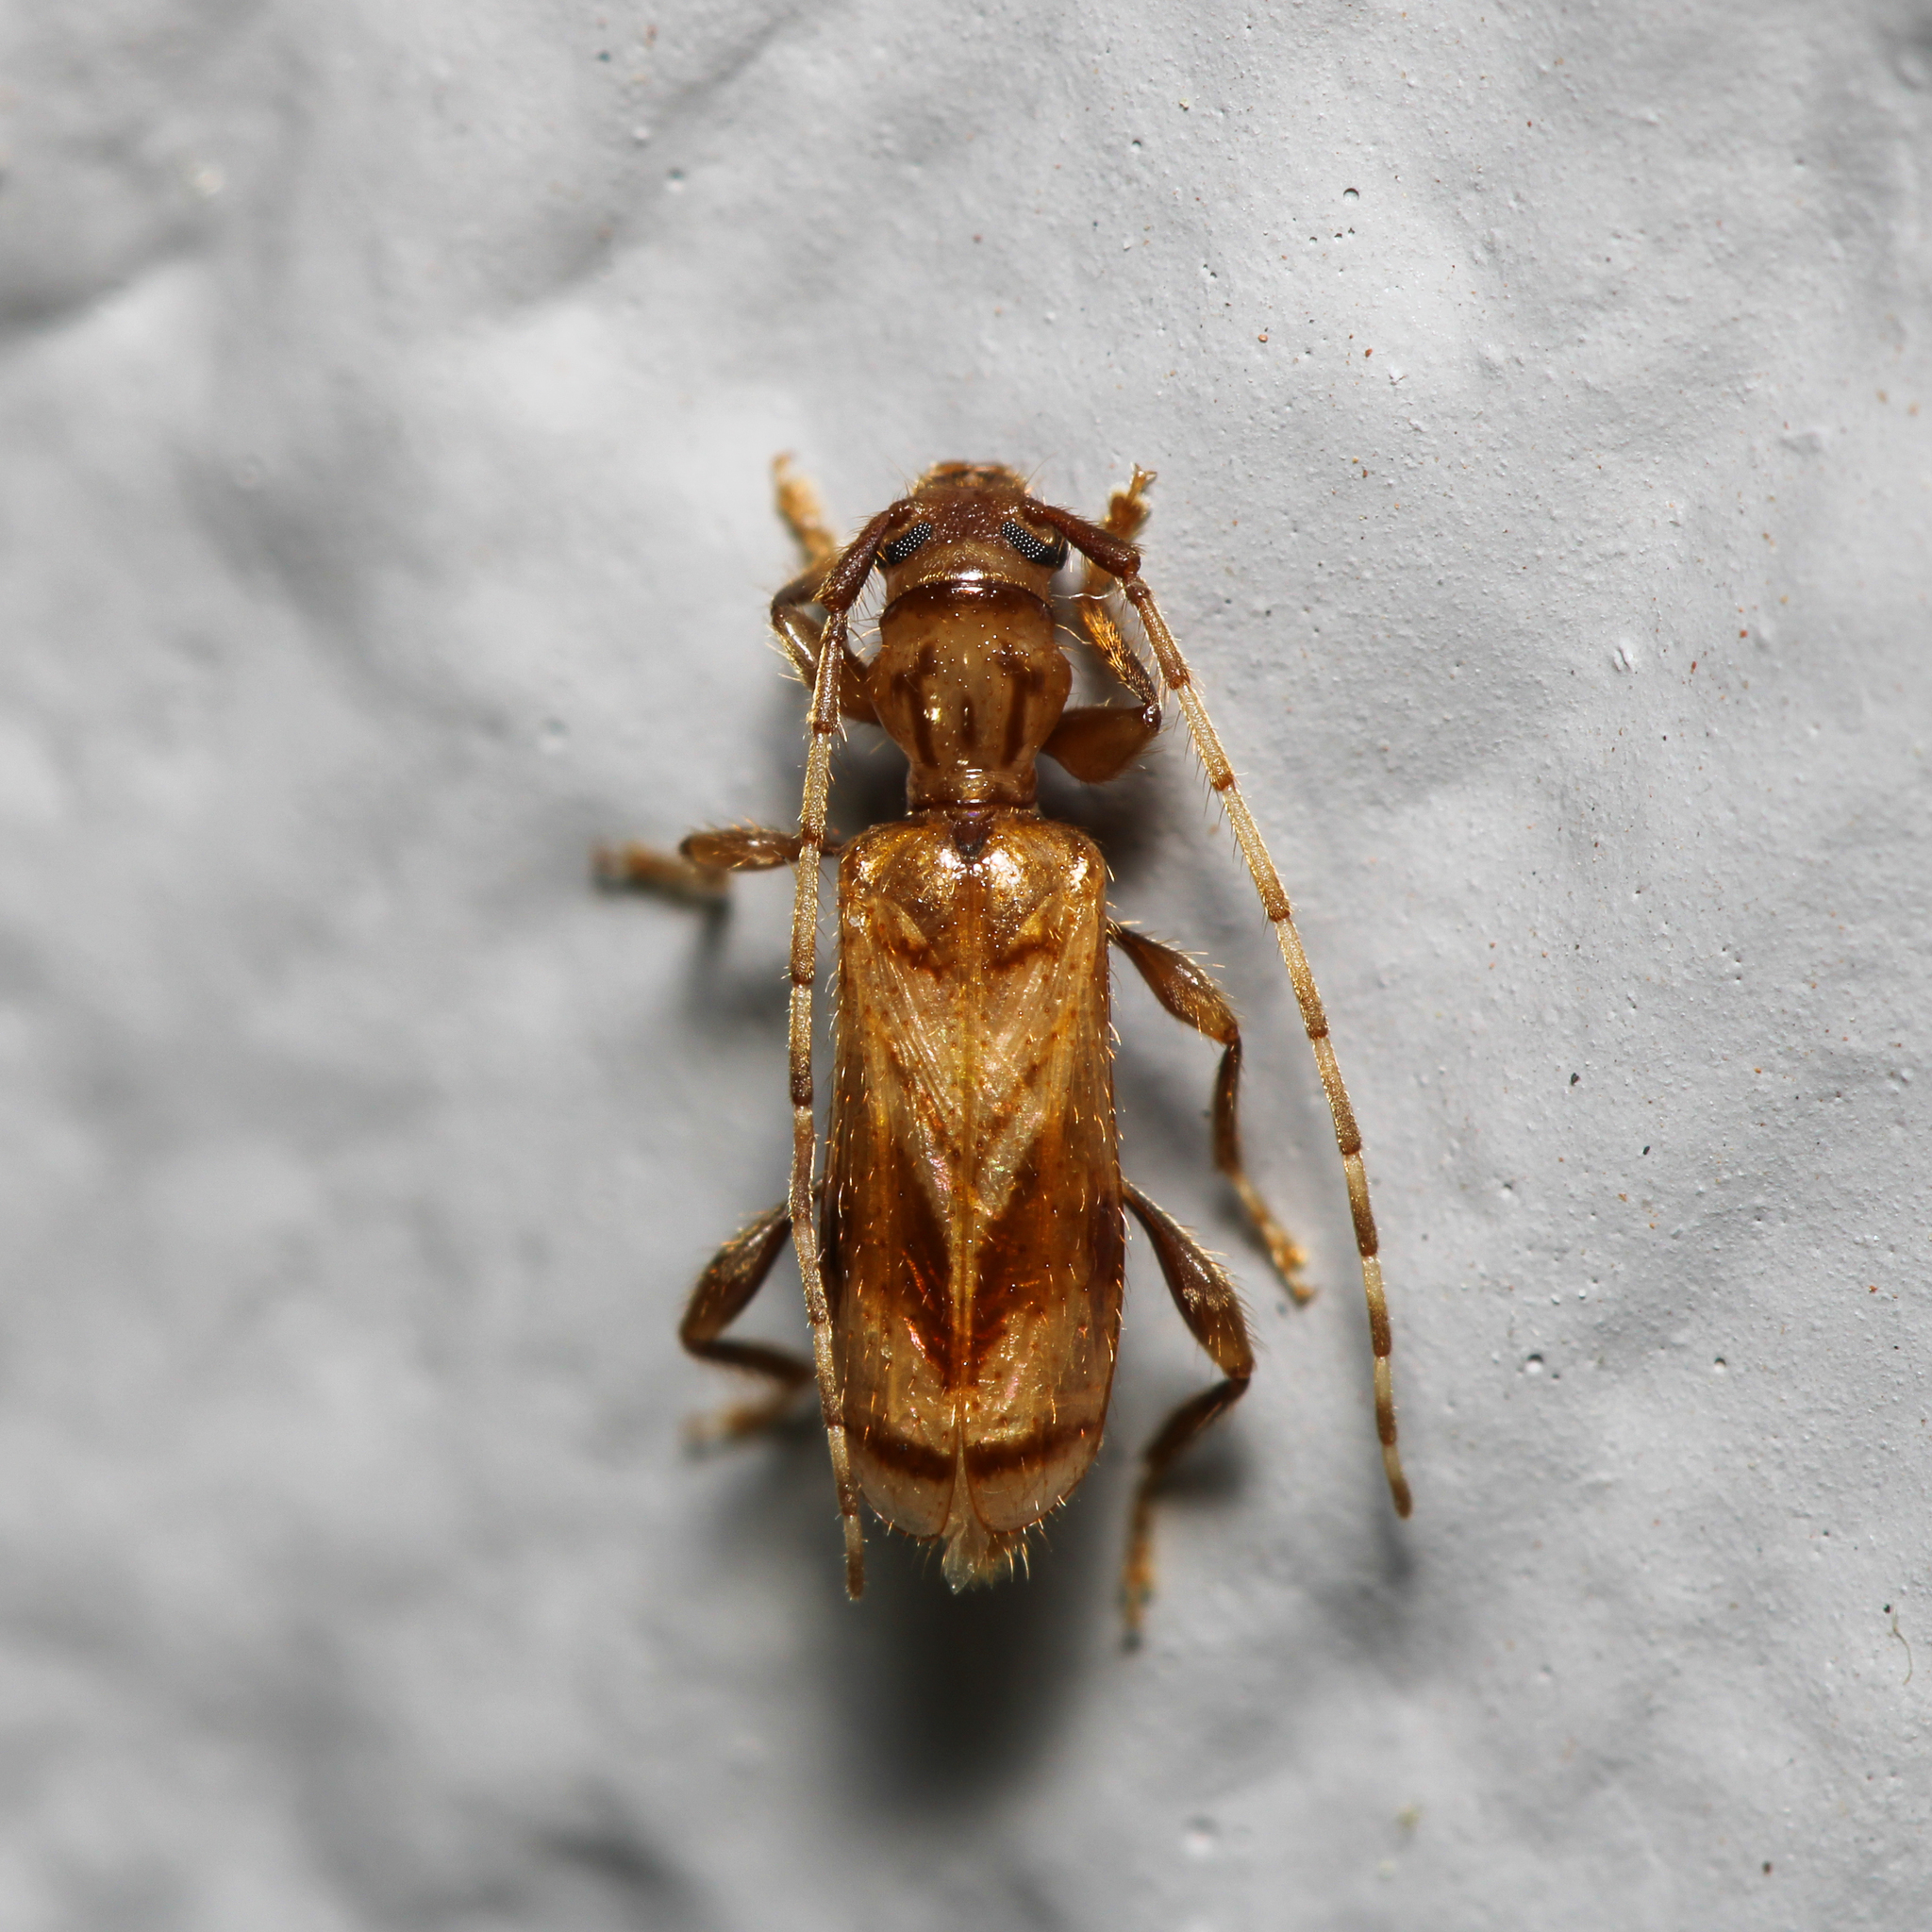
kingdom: Animalia
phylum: Arthropoda
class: Insecta
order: Coleoptera
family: Cerambycidae
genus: Obrium
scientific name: Obrium maculatum
